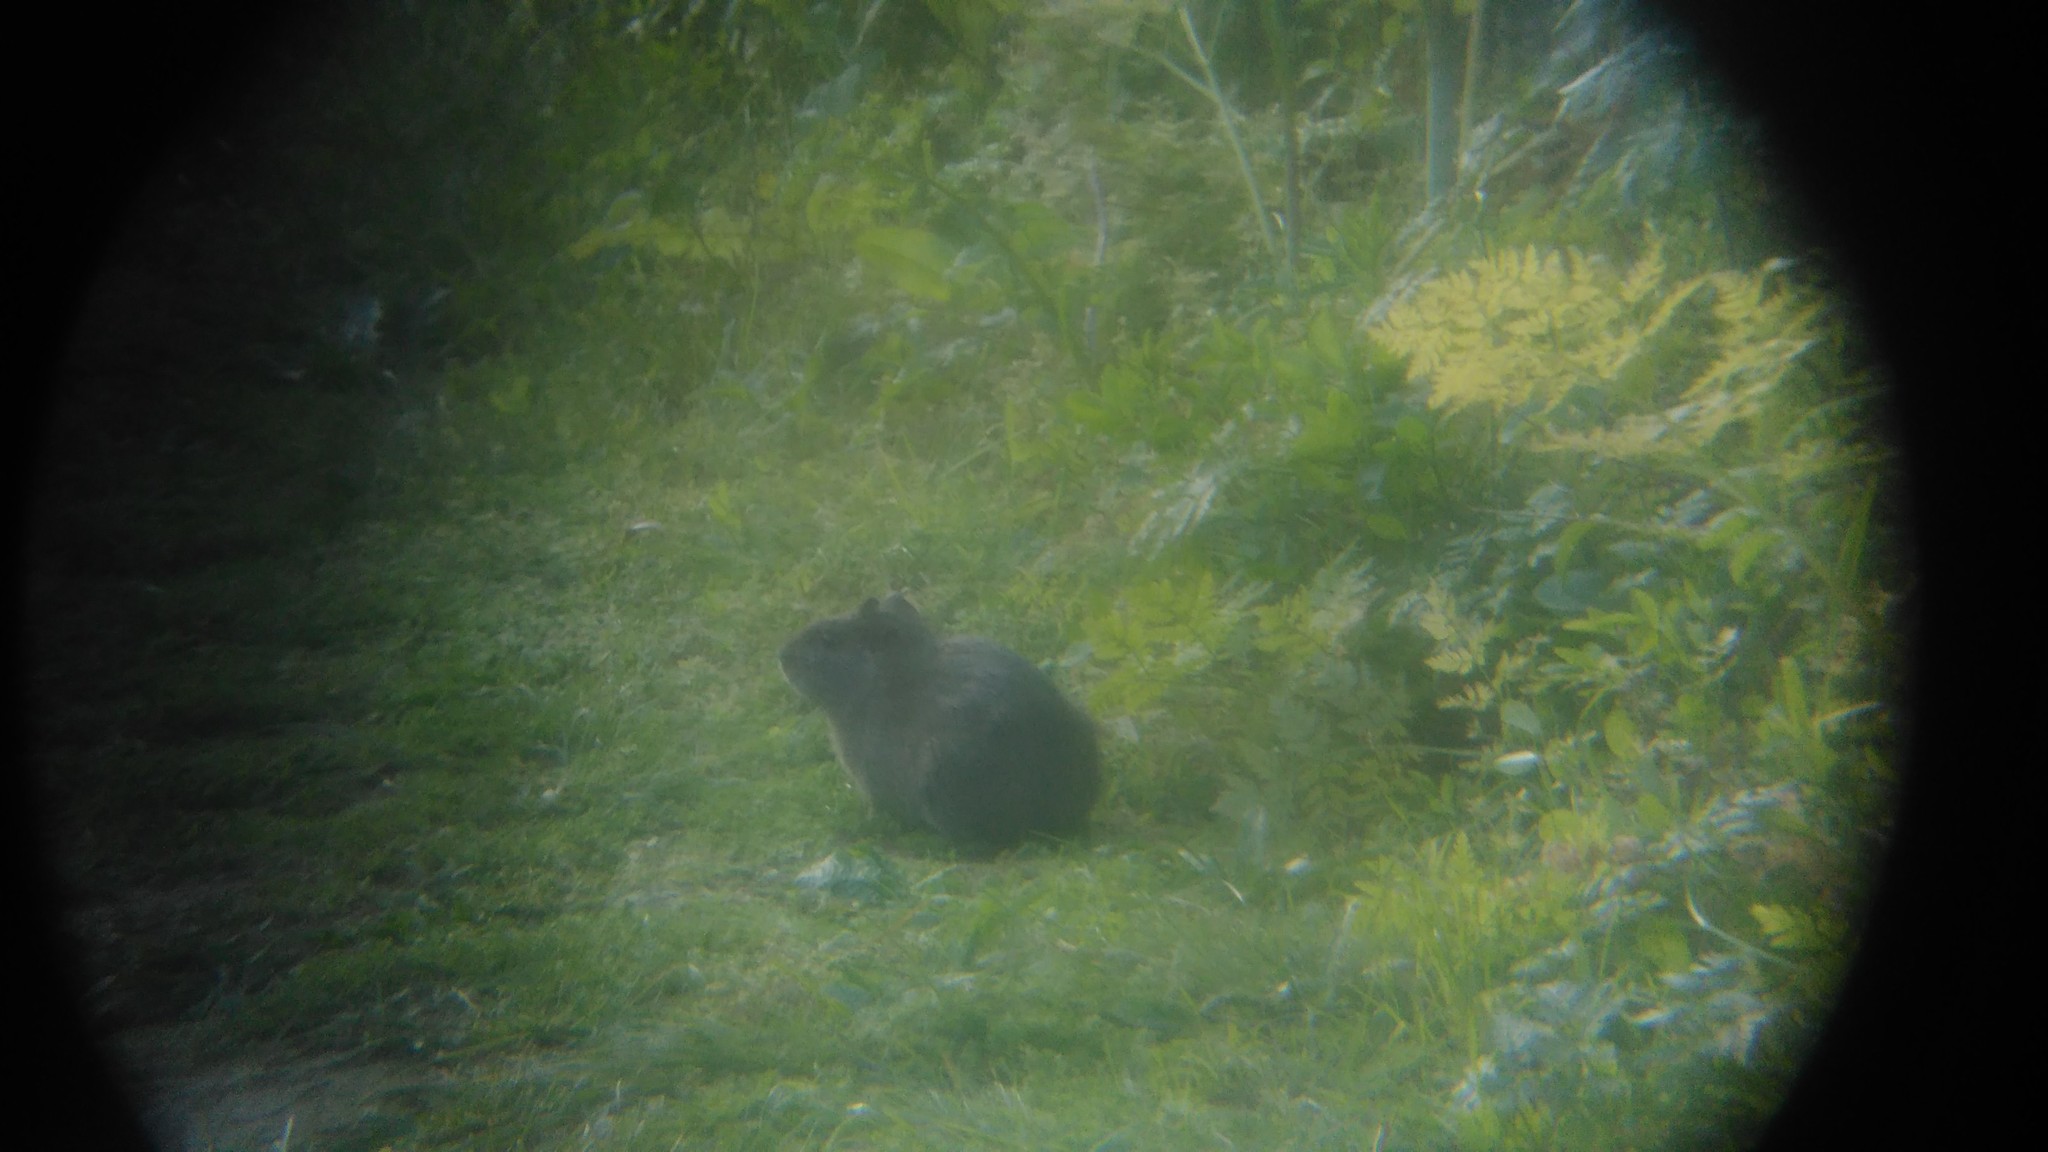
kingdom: Animalia
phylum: Chordata
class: Mammalia
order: Rodentia
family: Caviidae
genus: Cavia
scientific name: Cavia aperea
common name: Brazilian guinea pig
